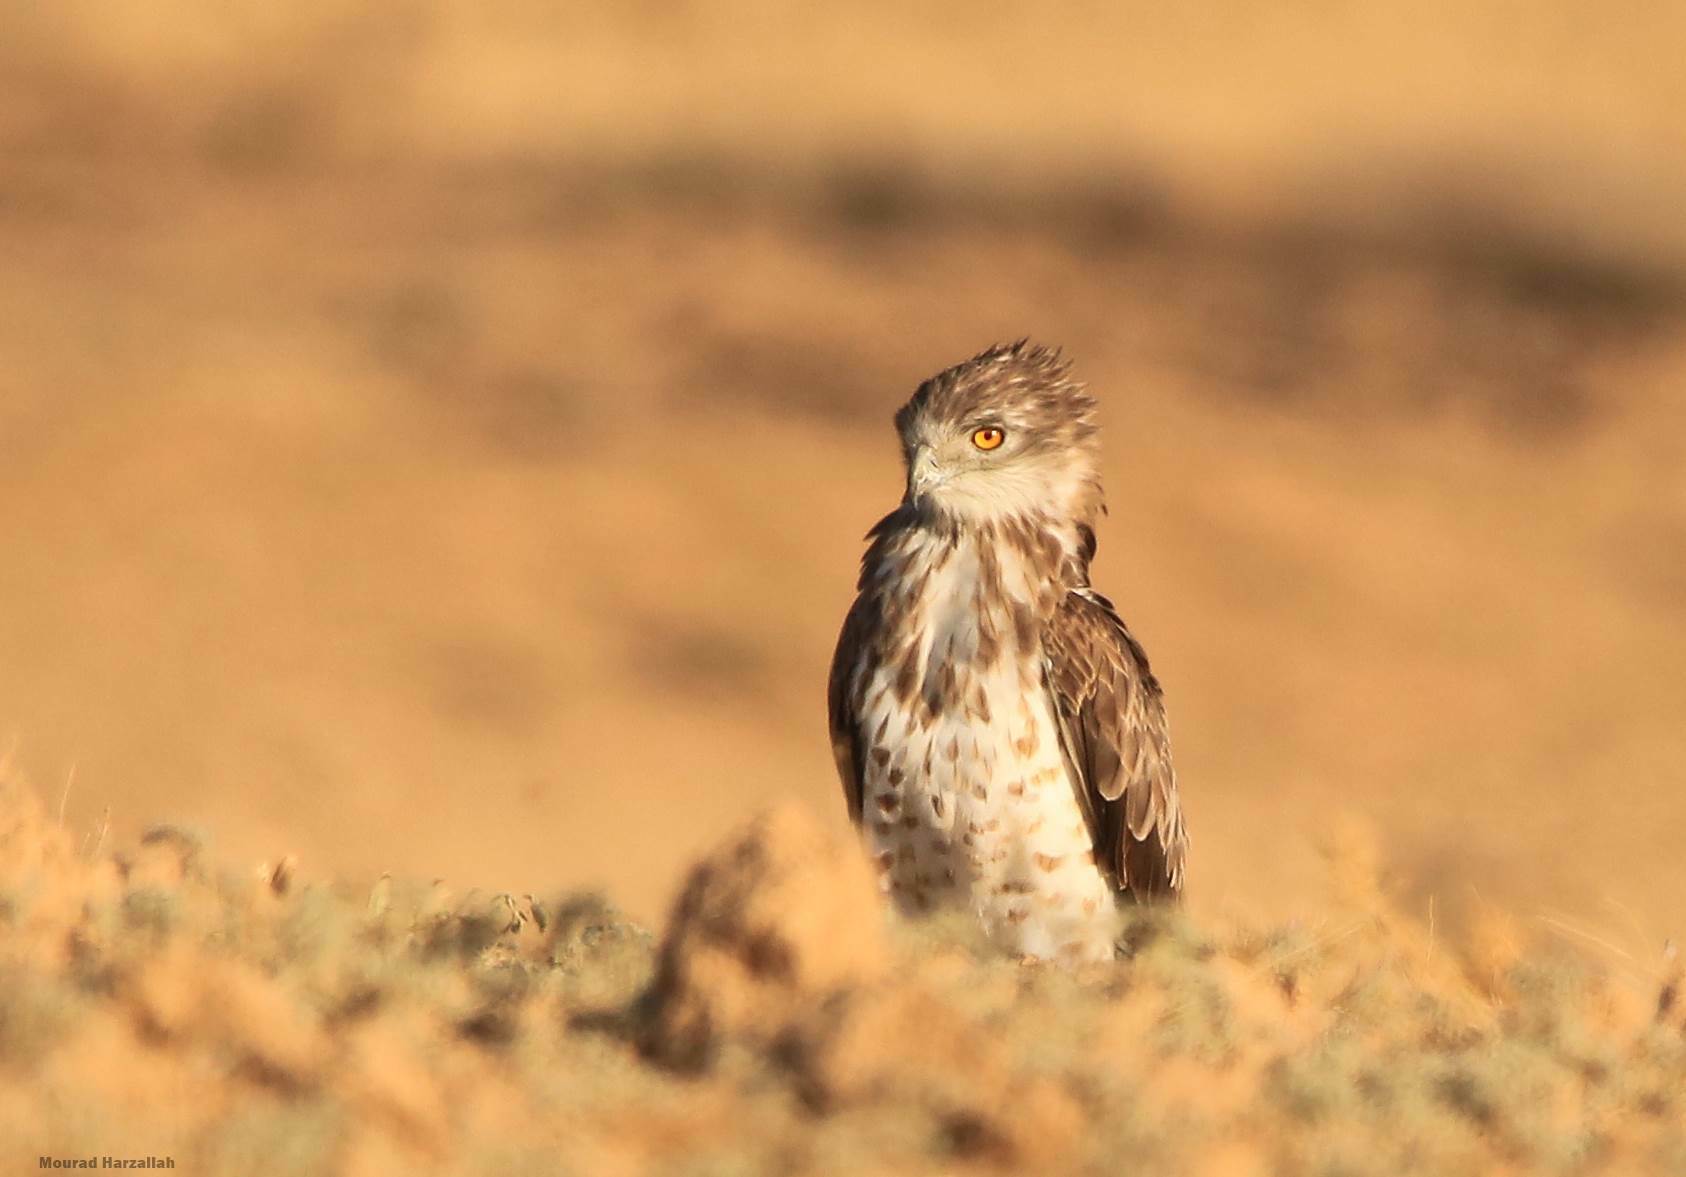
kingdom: Animalia
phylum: Chordata
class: Aves
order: Accipitriformes
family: Accipitridae
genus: Circaetus
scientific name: Circaetus gallicus
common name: Short-toed snake eagle
